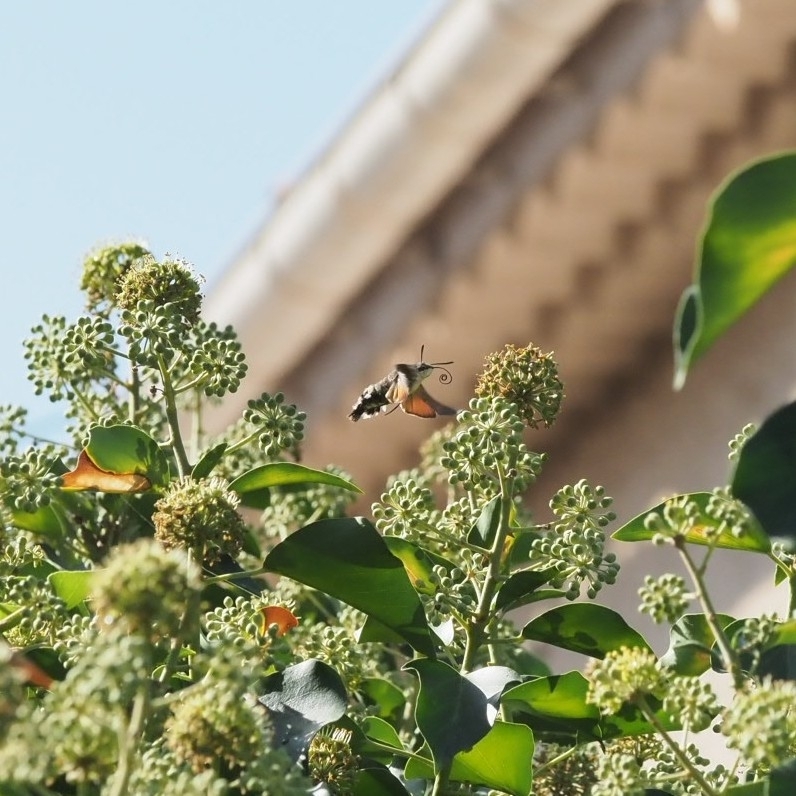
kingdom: Animalia
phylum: Arthropoda
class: Insecta
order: Lepidoptera
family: Sphingidae
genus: Macroglossum
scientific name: Macroglossum stellatarum
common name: Humming-bird hawk-moth
